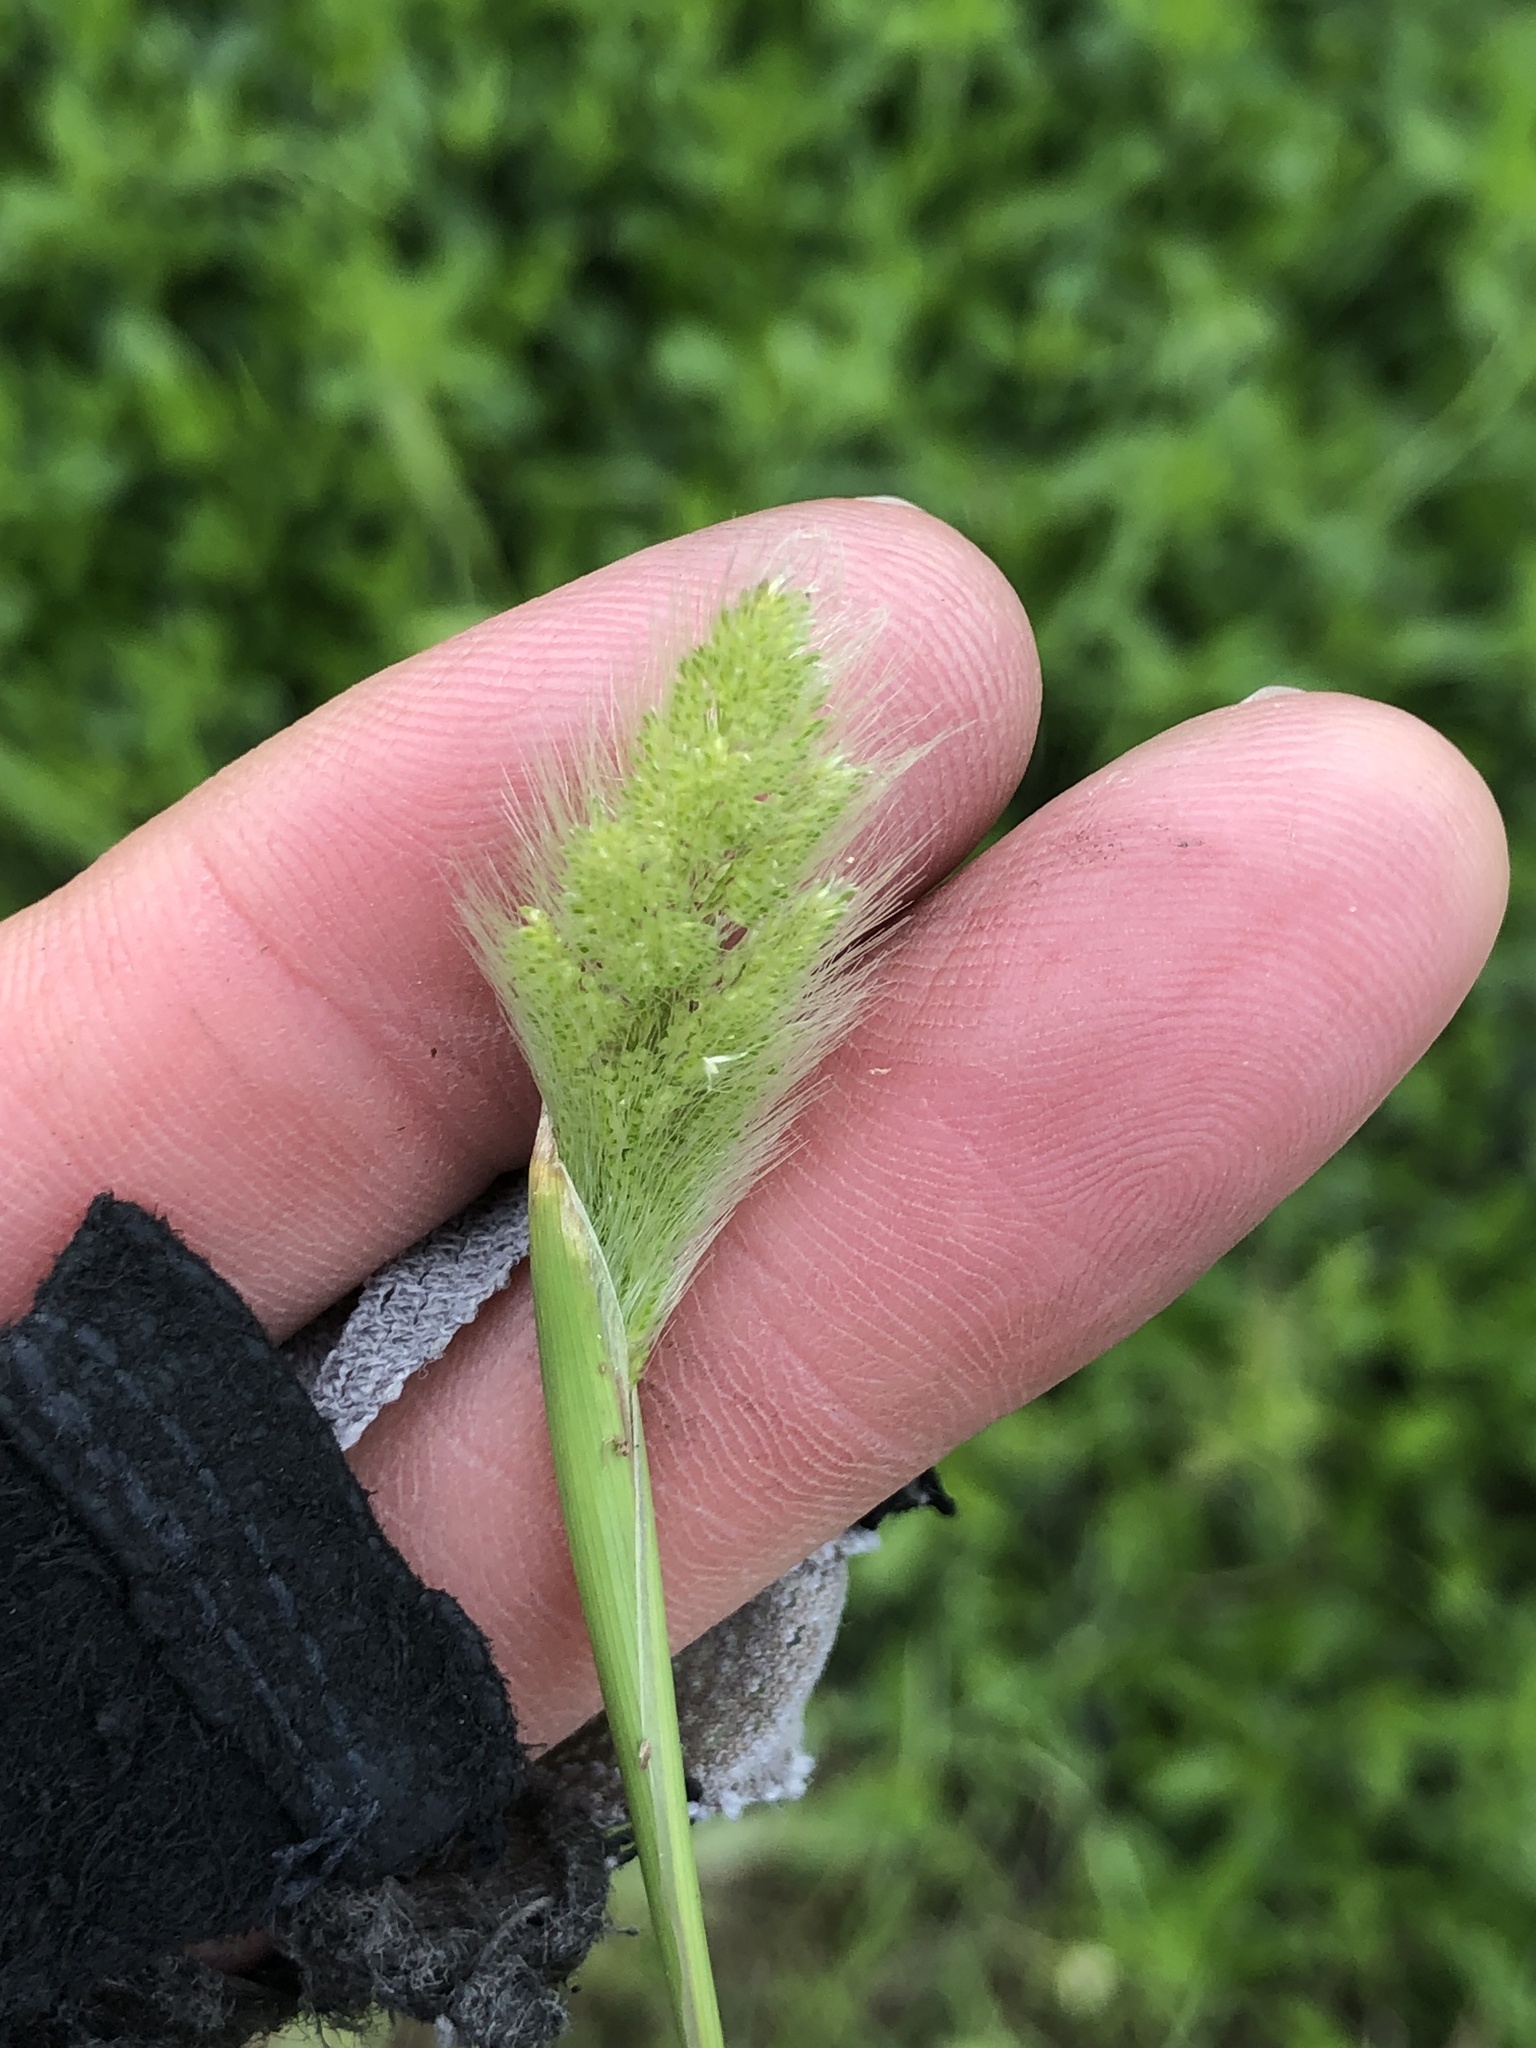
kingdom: Plantae
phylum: Tracheophyta
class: Liliopsida
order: Poales
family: Poaceae
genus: Polypogon
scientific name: Polypogon monspeliensis
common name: Annual rabbitsfoot grass
